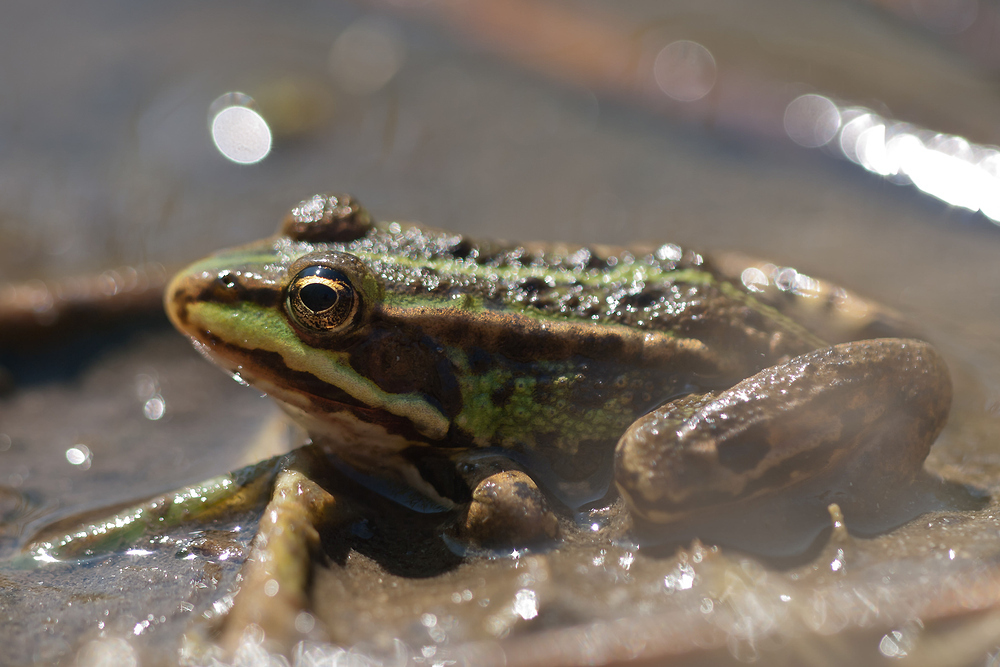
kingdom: Animalia
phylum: Chordata
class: Amphibia
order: Anura
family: Ranidae
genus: Pelophylax
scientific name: Pelophylax lessonae
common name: Pool frog
